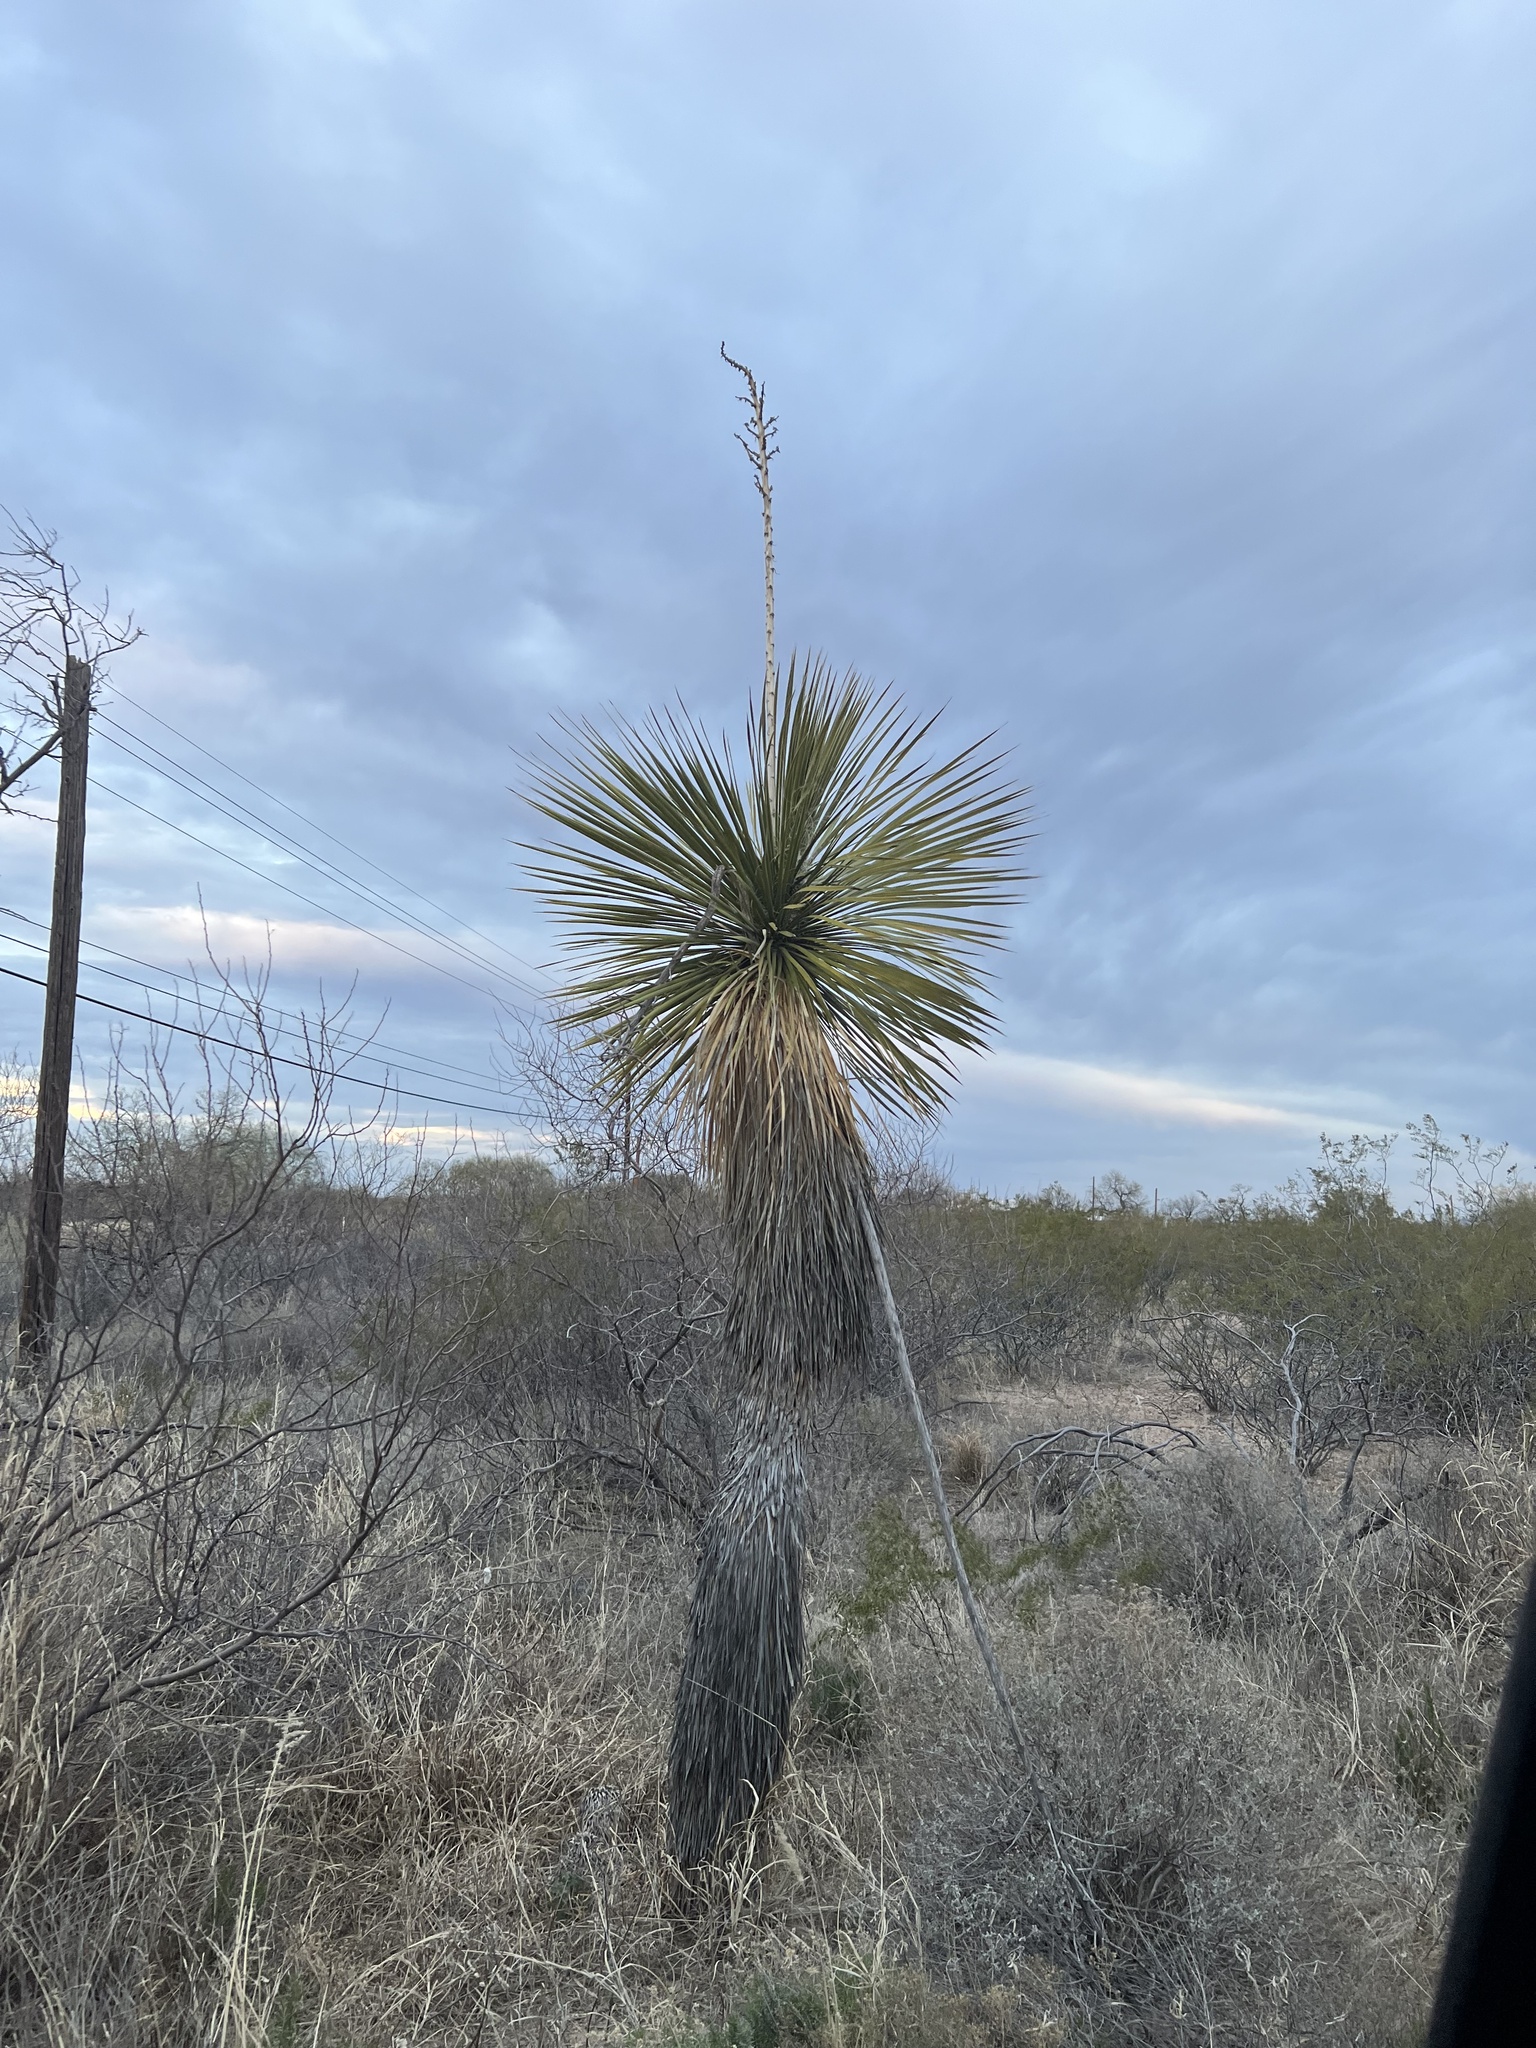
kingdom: Plantae
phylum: Tracheophyta
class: Liliopsida
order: Asparagales
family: Asparagaceae
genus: Yucca
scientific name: Yucca elata
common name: Palmella
